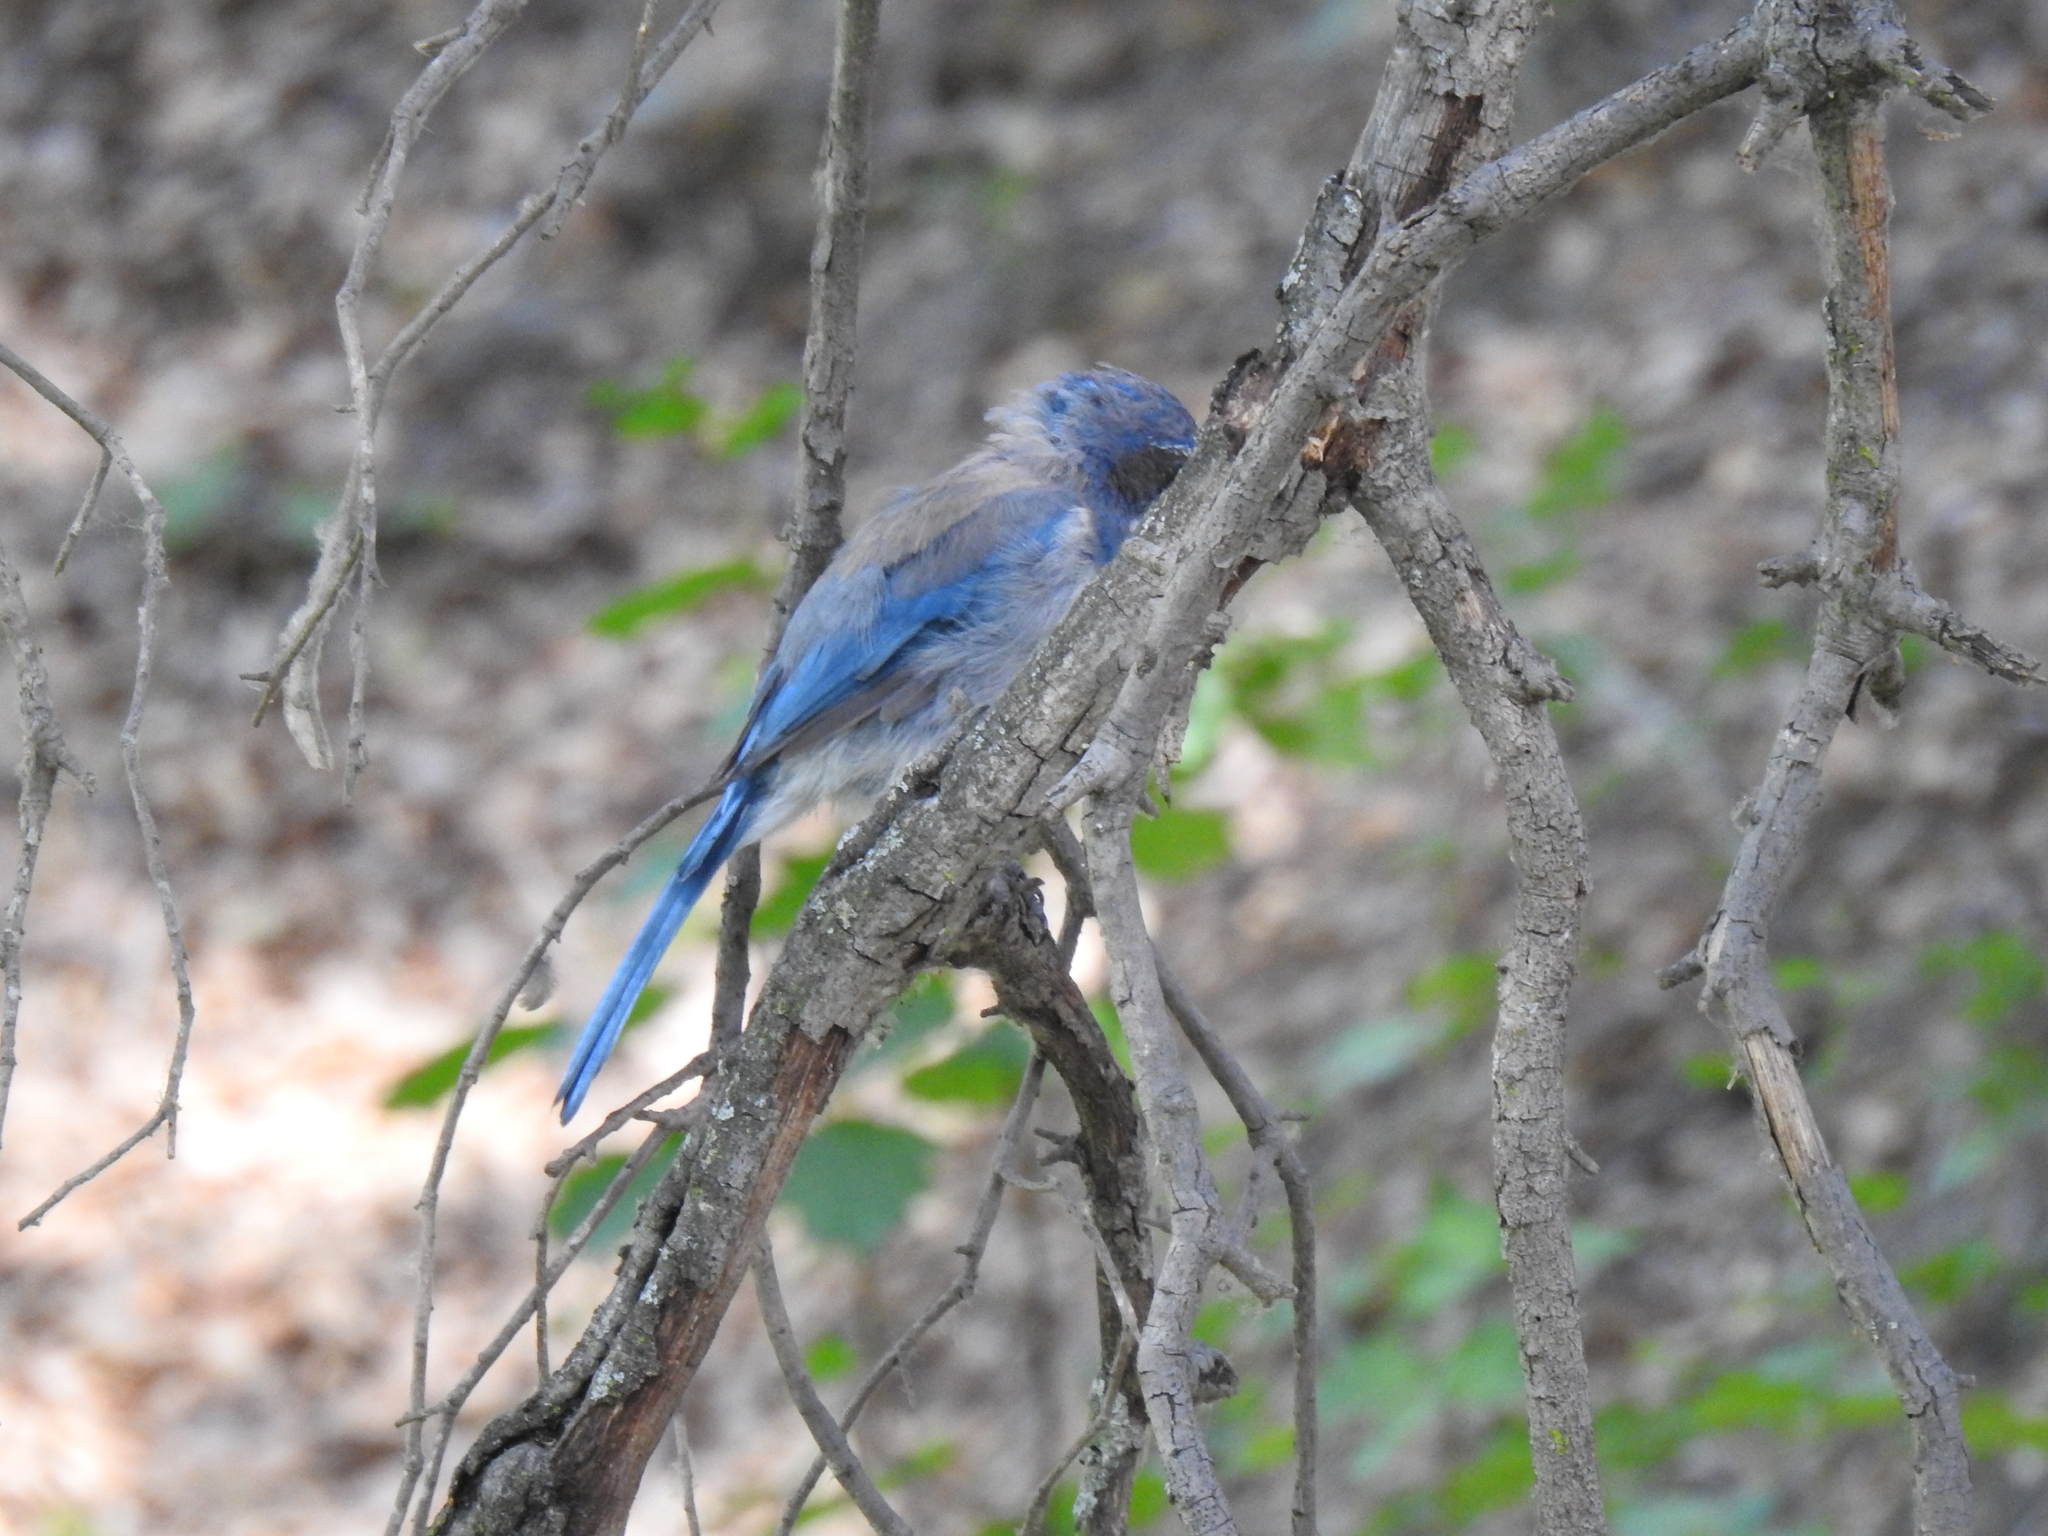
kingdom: Animalia
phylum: Chordata
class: Aves
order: Passeriformes
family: Corvidae
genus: Aphelocoma
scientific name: Aphelocoma californica
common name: California scrub-jay
